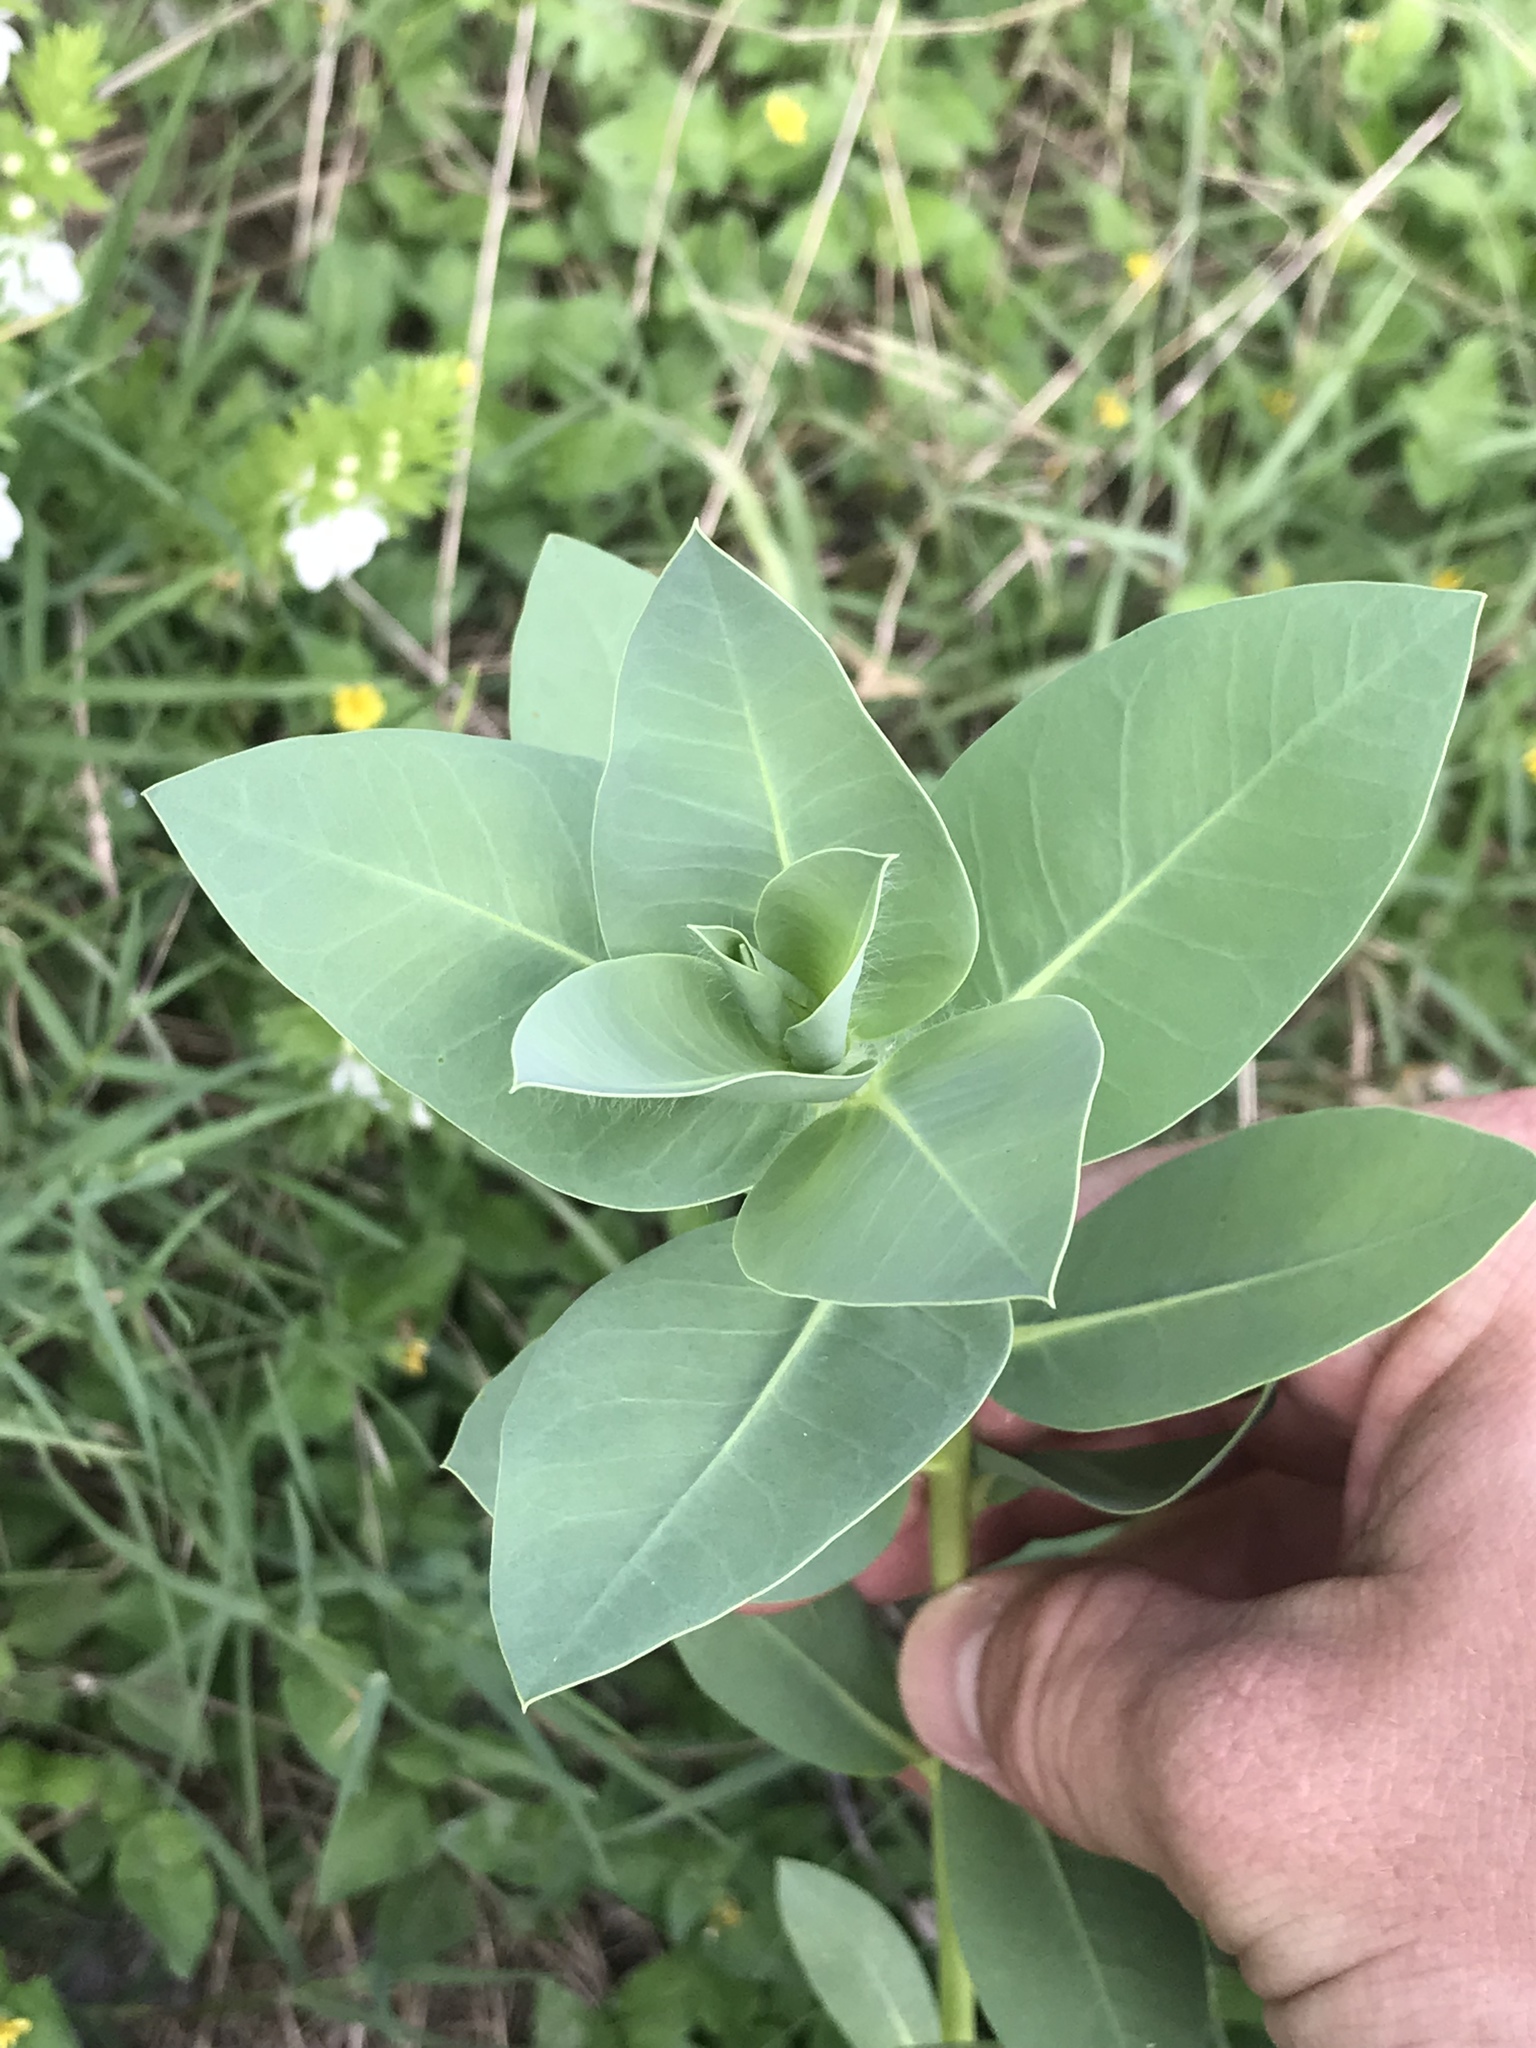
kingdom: Plantae
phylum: Tracheophyta
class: Magnoliopsida
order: Malpighiales
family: Euphorbiaceae
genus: Euphorbia
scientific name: Euphorbia marginata
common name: Ghostweed
